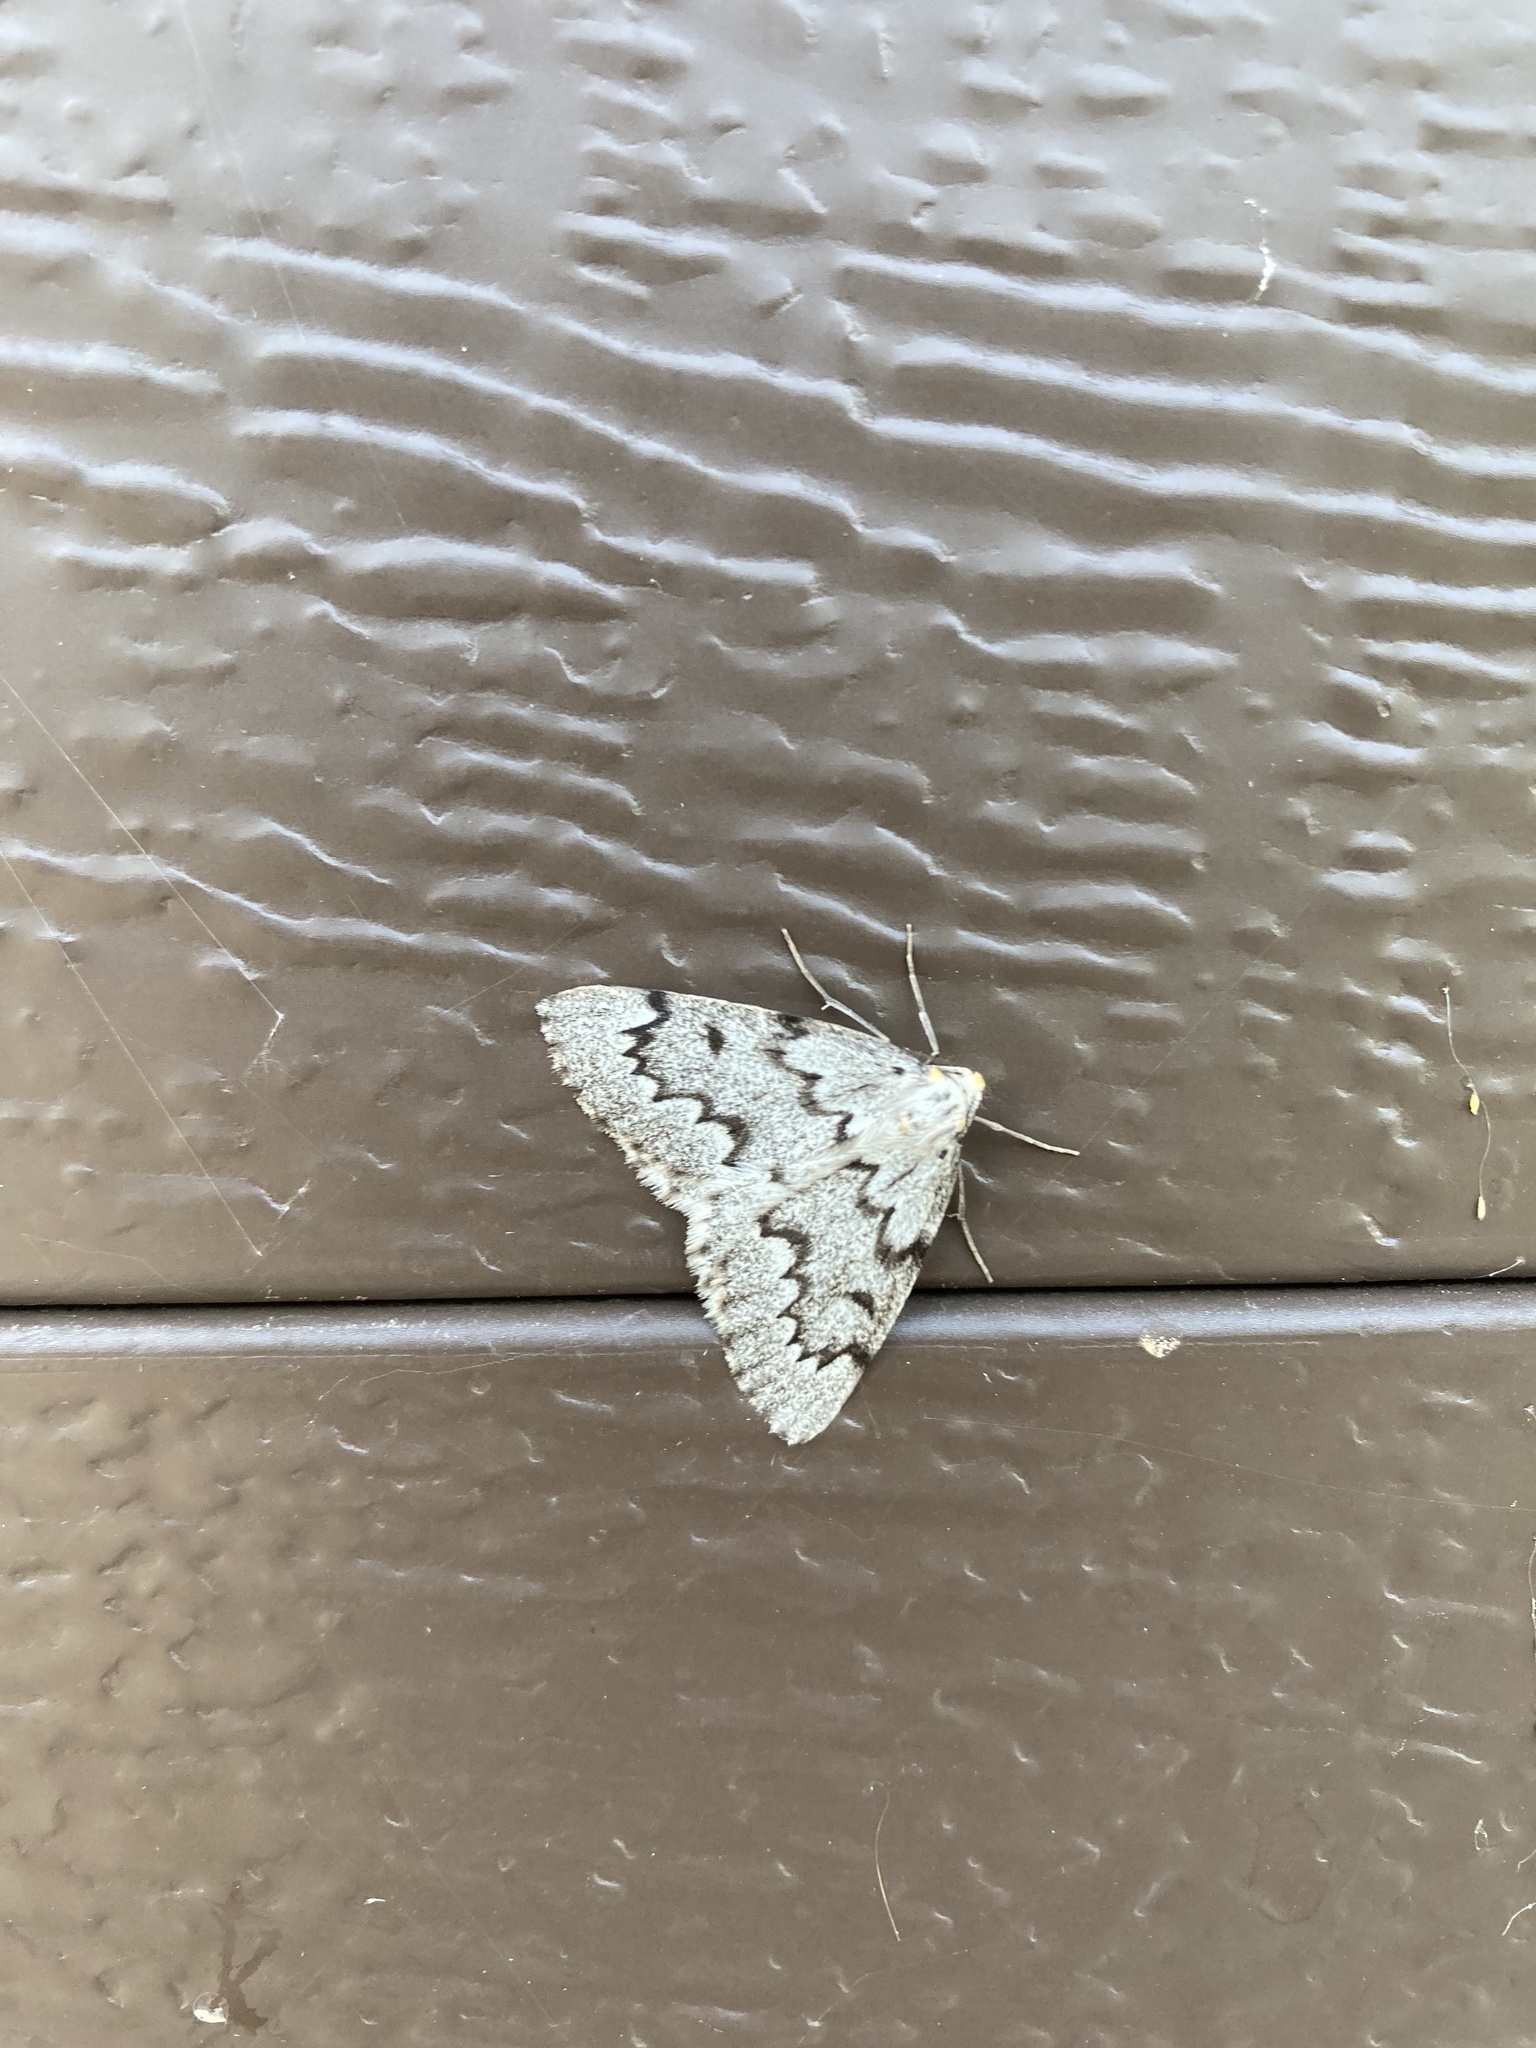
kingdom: Animalia
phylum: Arthropoda
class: Insecta
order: Lepidoptera
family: Geometridae
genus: Nepytia
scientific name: Nepytia canosaria
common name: False hemlock looper
